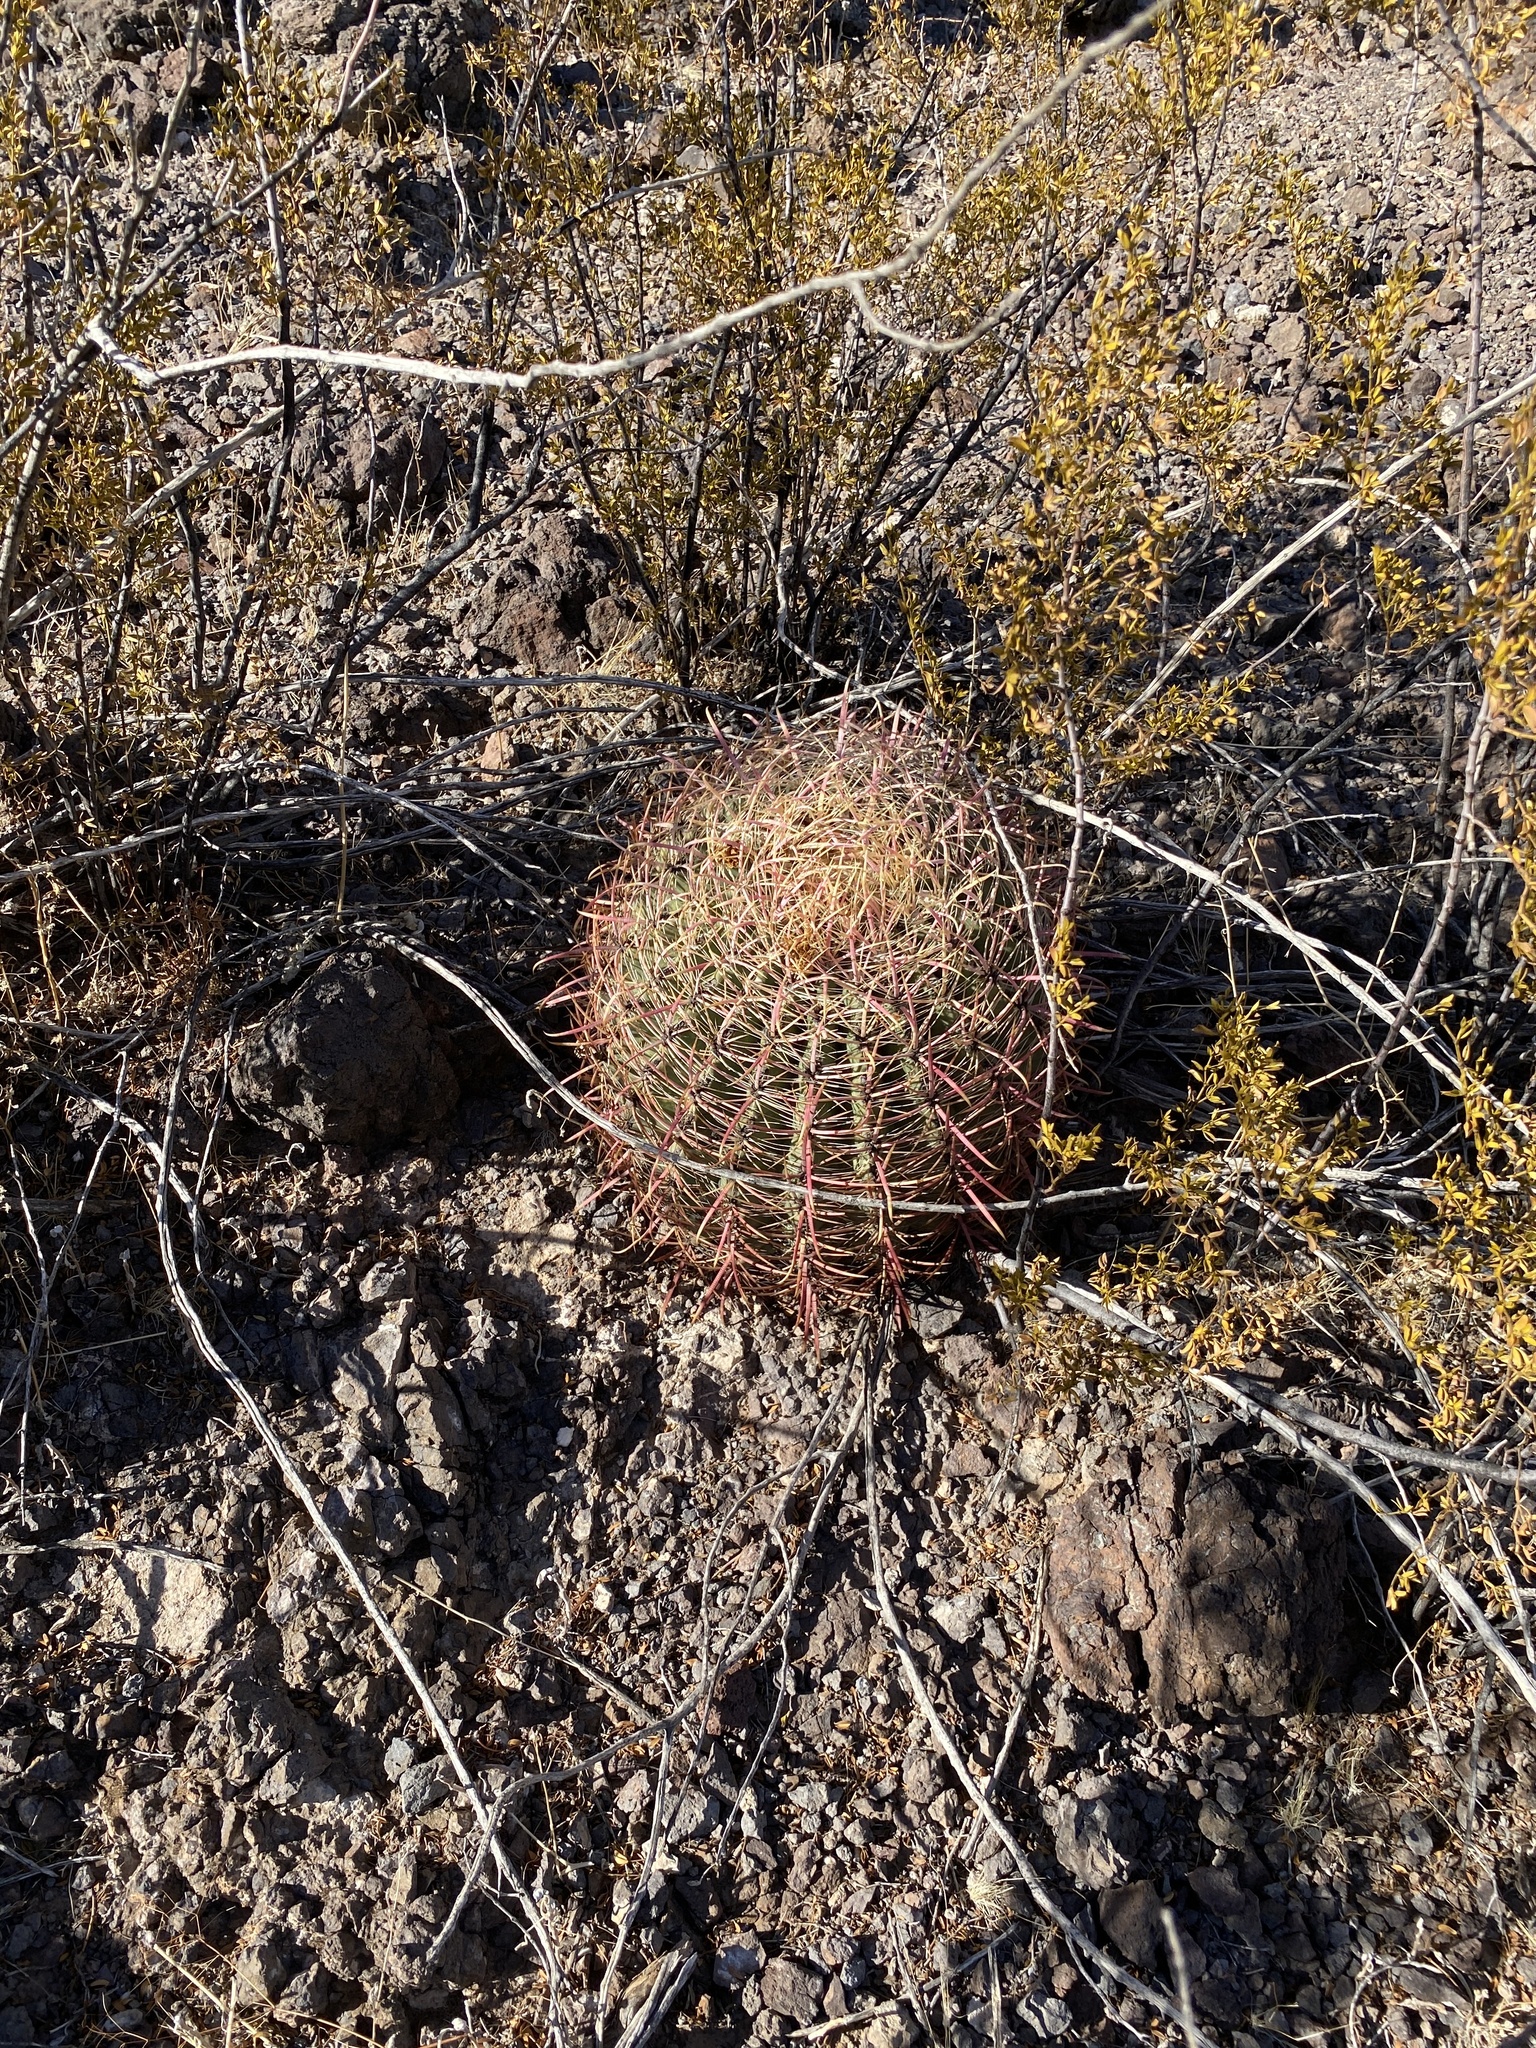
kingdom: Plantae
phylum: Tracheophyta
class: Magnoliopsida
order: Caryophyllales
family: Cactaceae
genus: Ferocactus
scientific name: Ferocactus cylindraceus
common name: California barrel cactus
